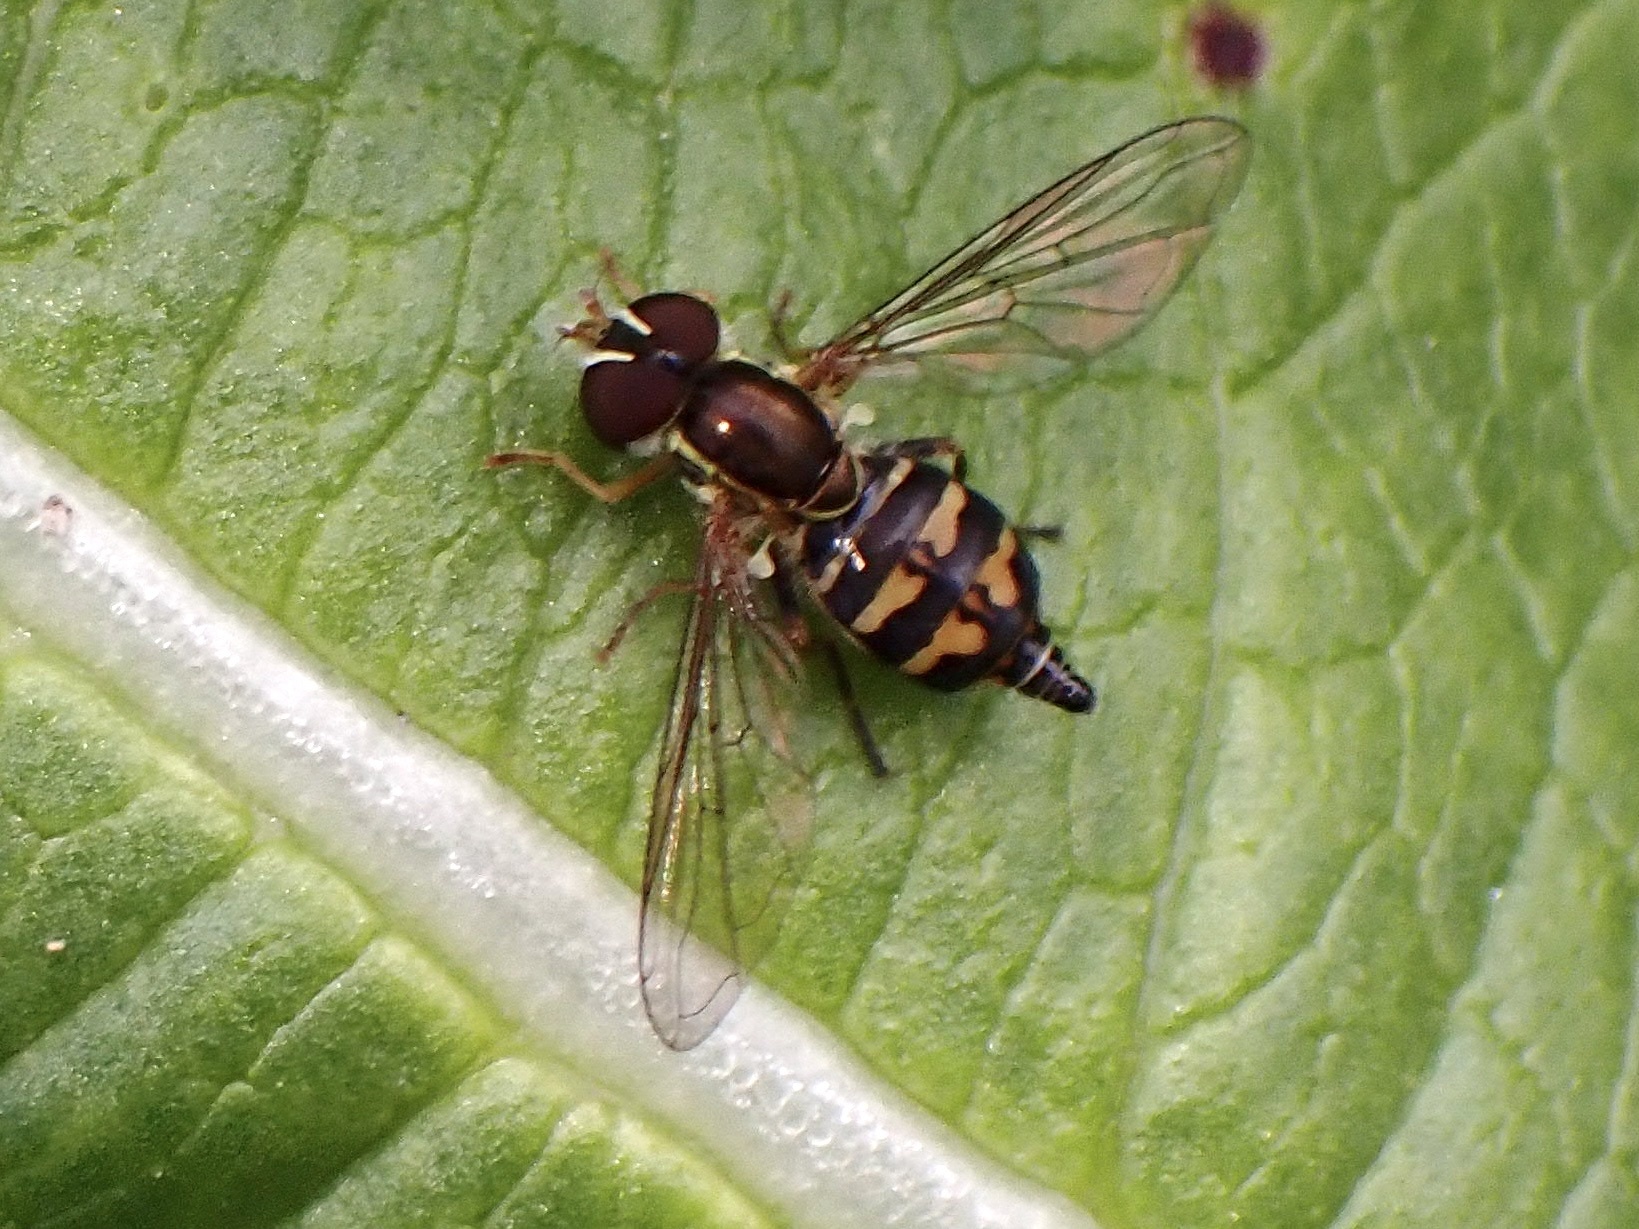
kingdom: Animalia
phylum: Arthropoda
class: Insecta
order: Diptera
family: Syrphidae
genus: Toxomerus
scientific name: Toxomerus occidentalis
